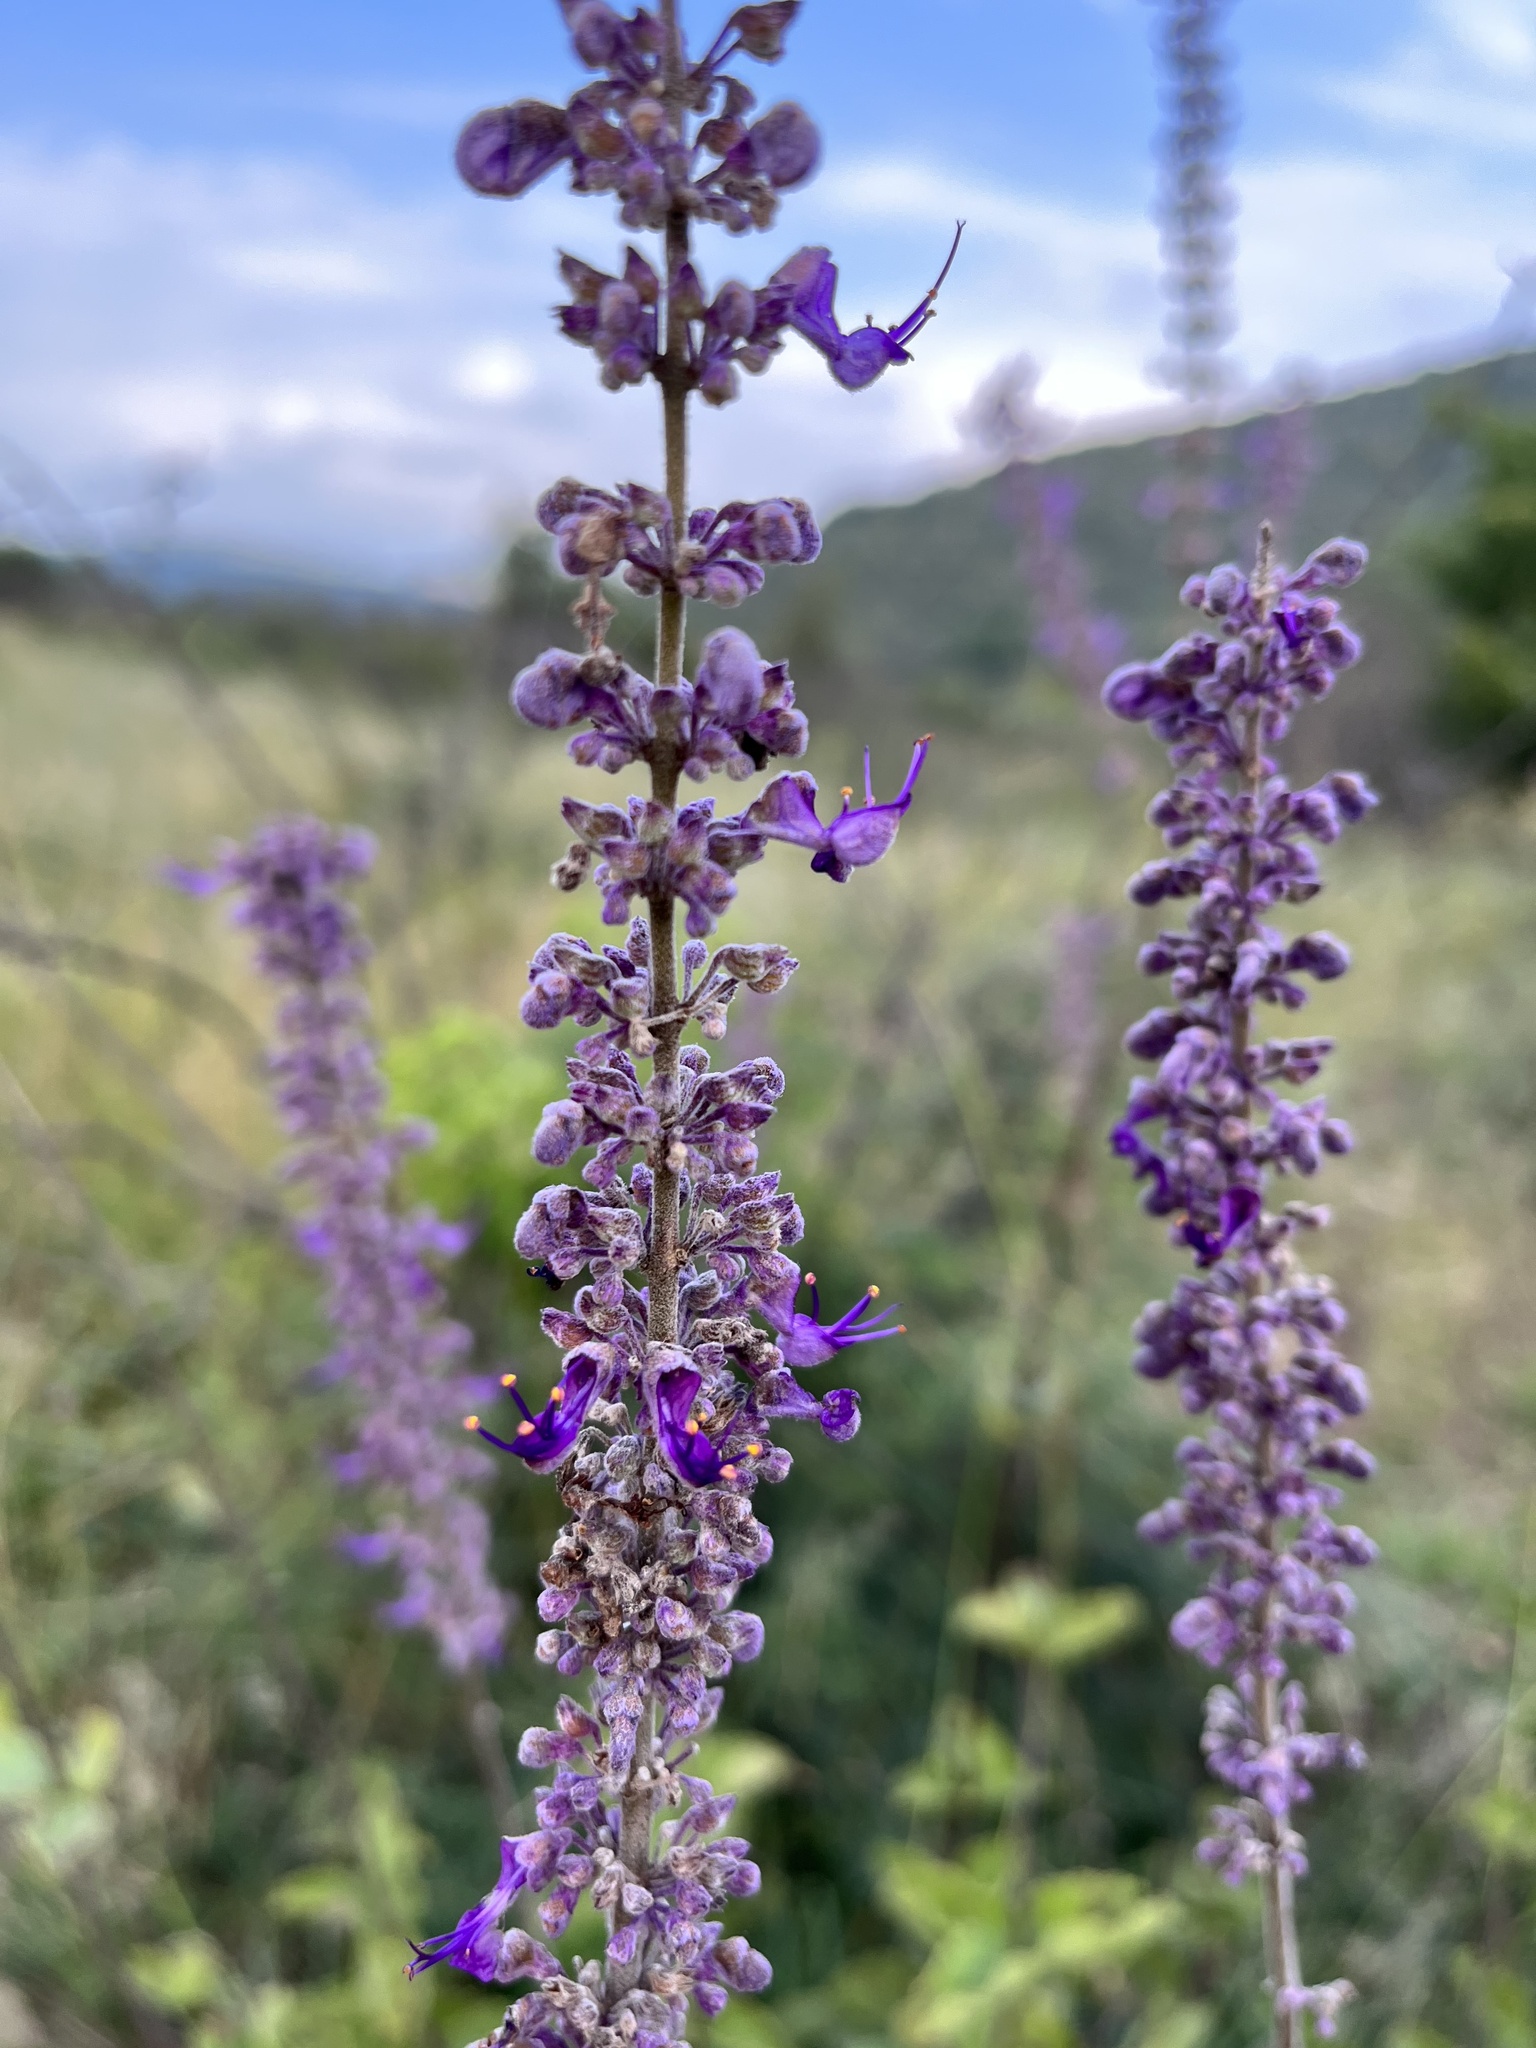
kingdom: Plantae
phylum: Tracheophyta
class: Magnoliopsida
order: Lamiales
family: Lamiaceae
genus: Coleus
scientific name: Coleus xerophilus
